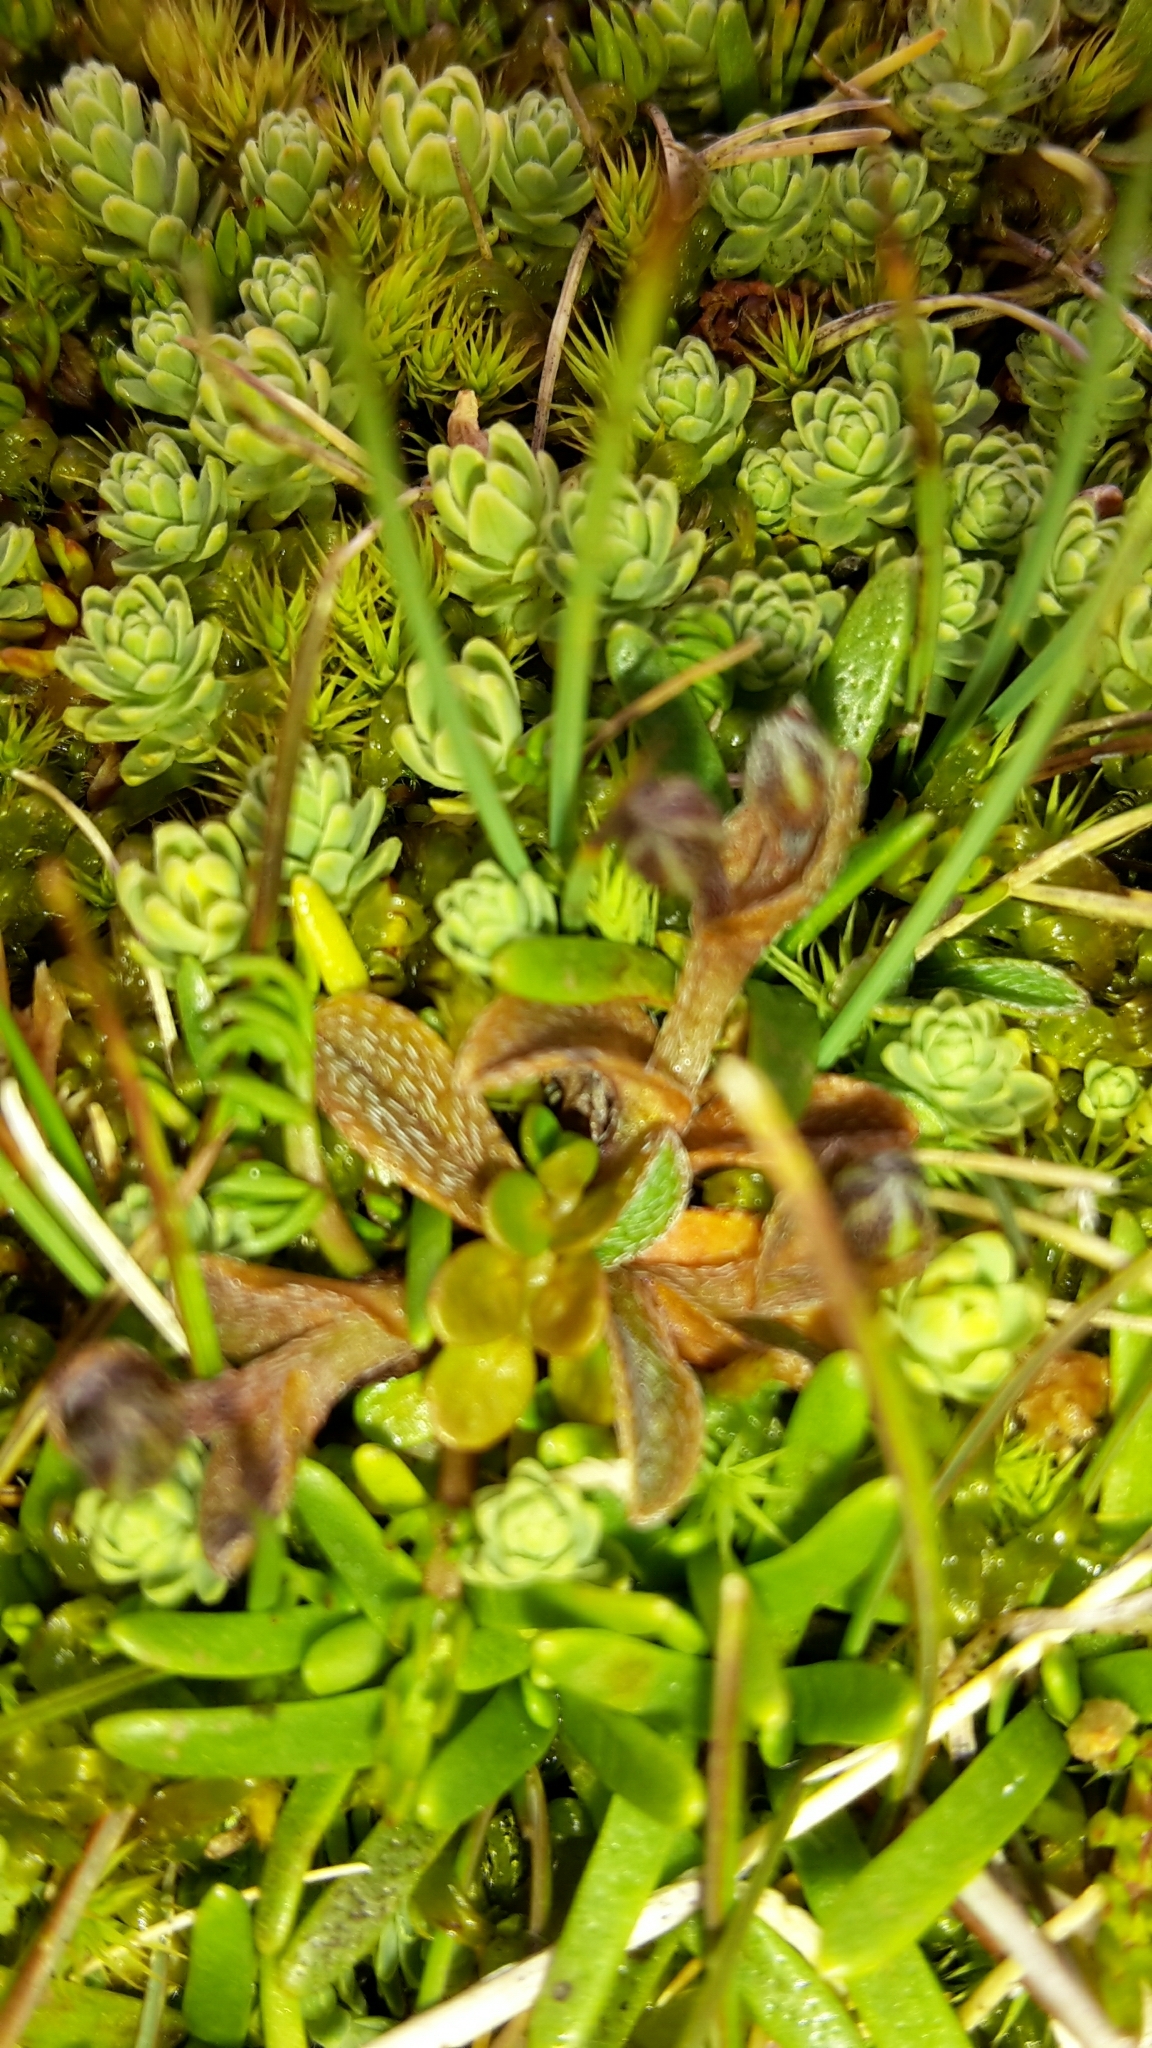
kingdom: Plantae
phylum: Tracheophyta
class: Magnoliopsida
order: Boraginales
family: Boraginaceae
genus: Myosotis
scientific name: Myosotis bryonoma
